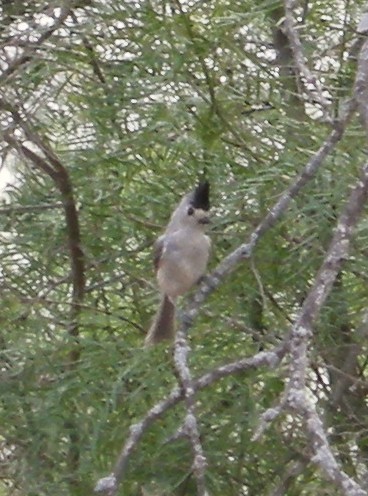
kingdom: Animalia
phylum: Chordata
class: Aves
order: Passeriformes
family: Paridae
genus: Baeolophus
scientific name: Baeolophus atricristatus
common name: Black-crested titmouse
